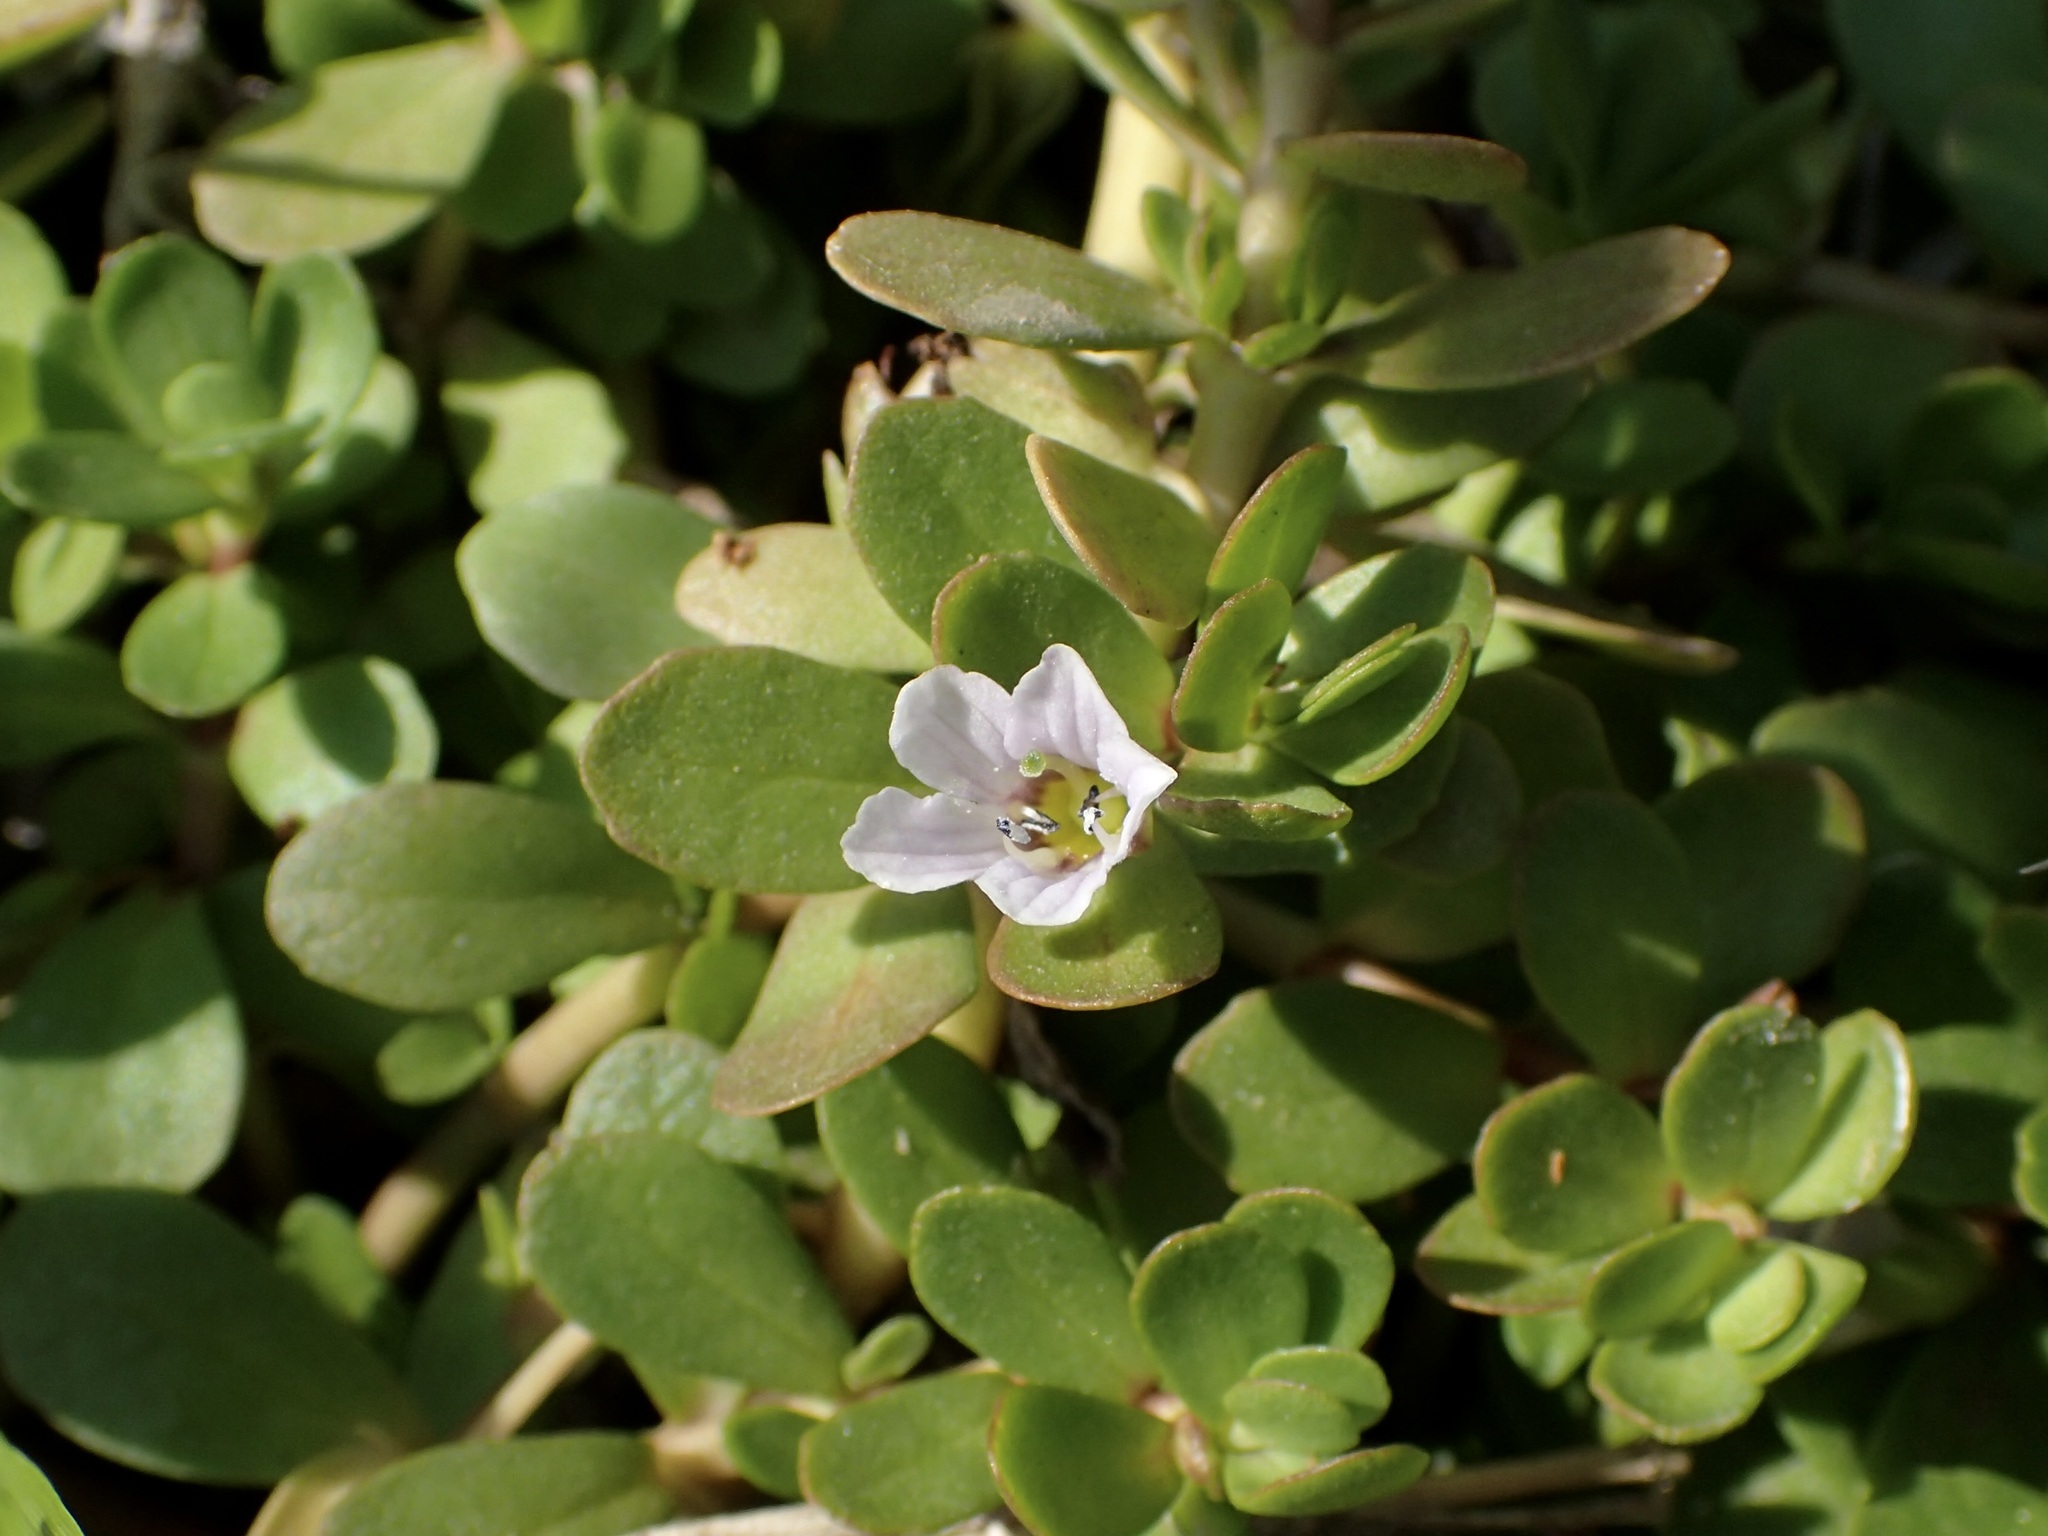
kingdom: Plantae
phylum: Tracheophyta
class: Magnoliopsida
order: Lamiales
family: Plantaginaceae
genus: Bacopa
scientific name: Bacopa monnieri
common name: Indian-pennywort
